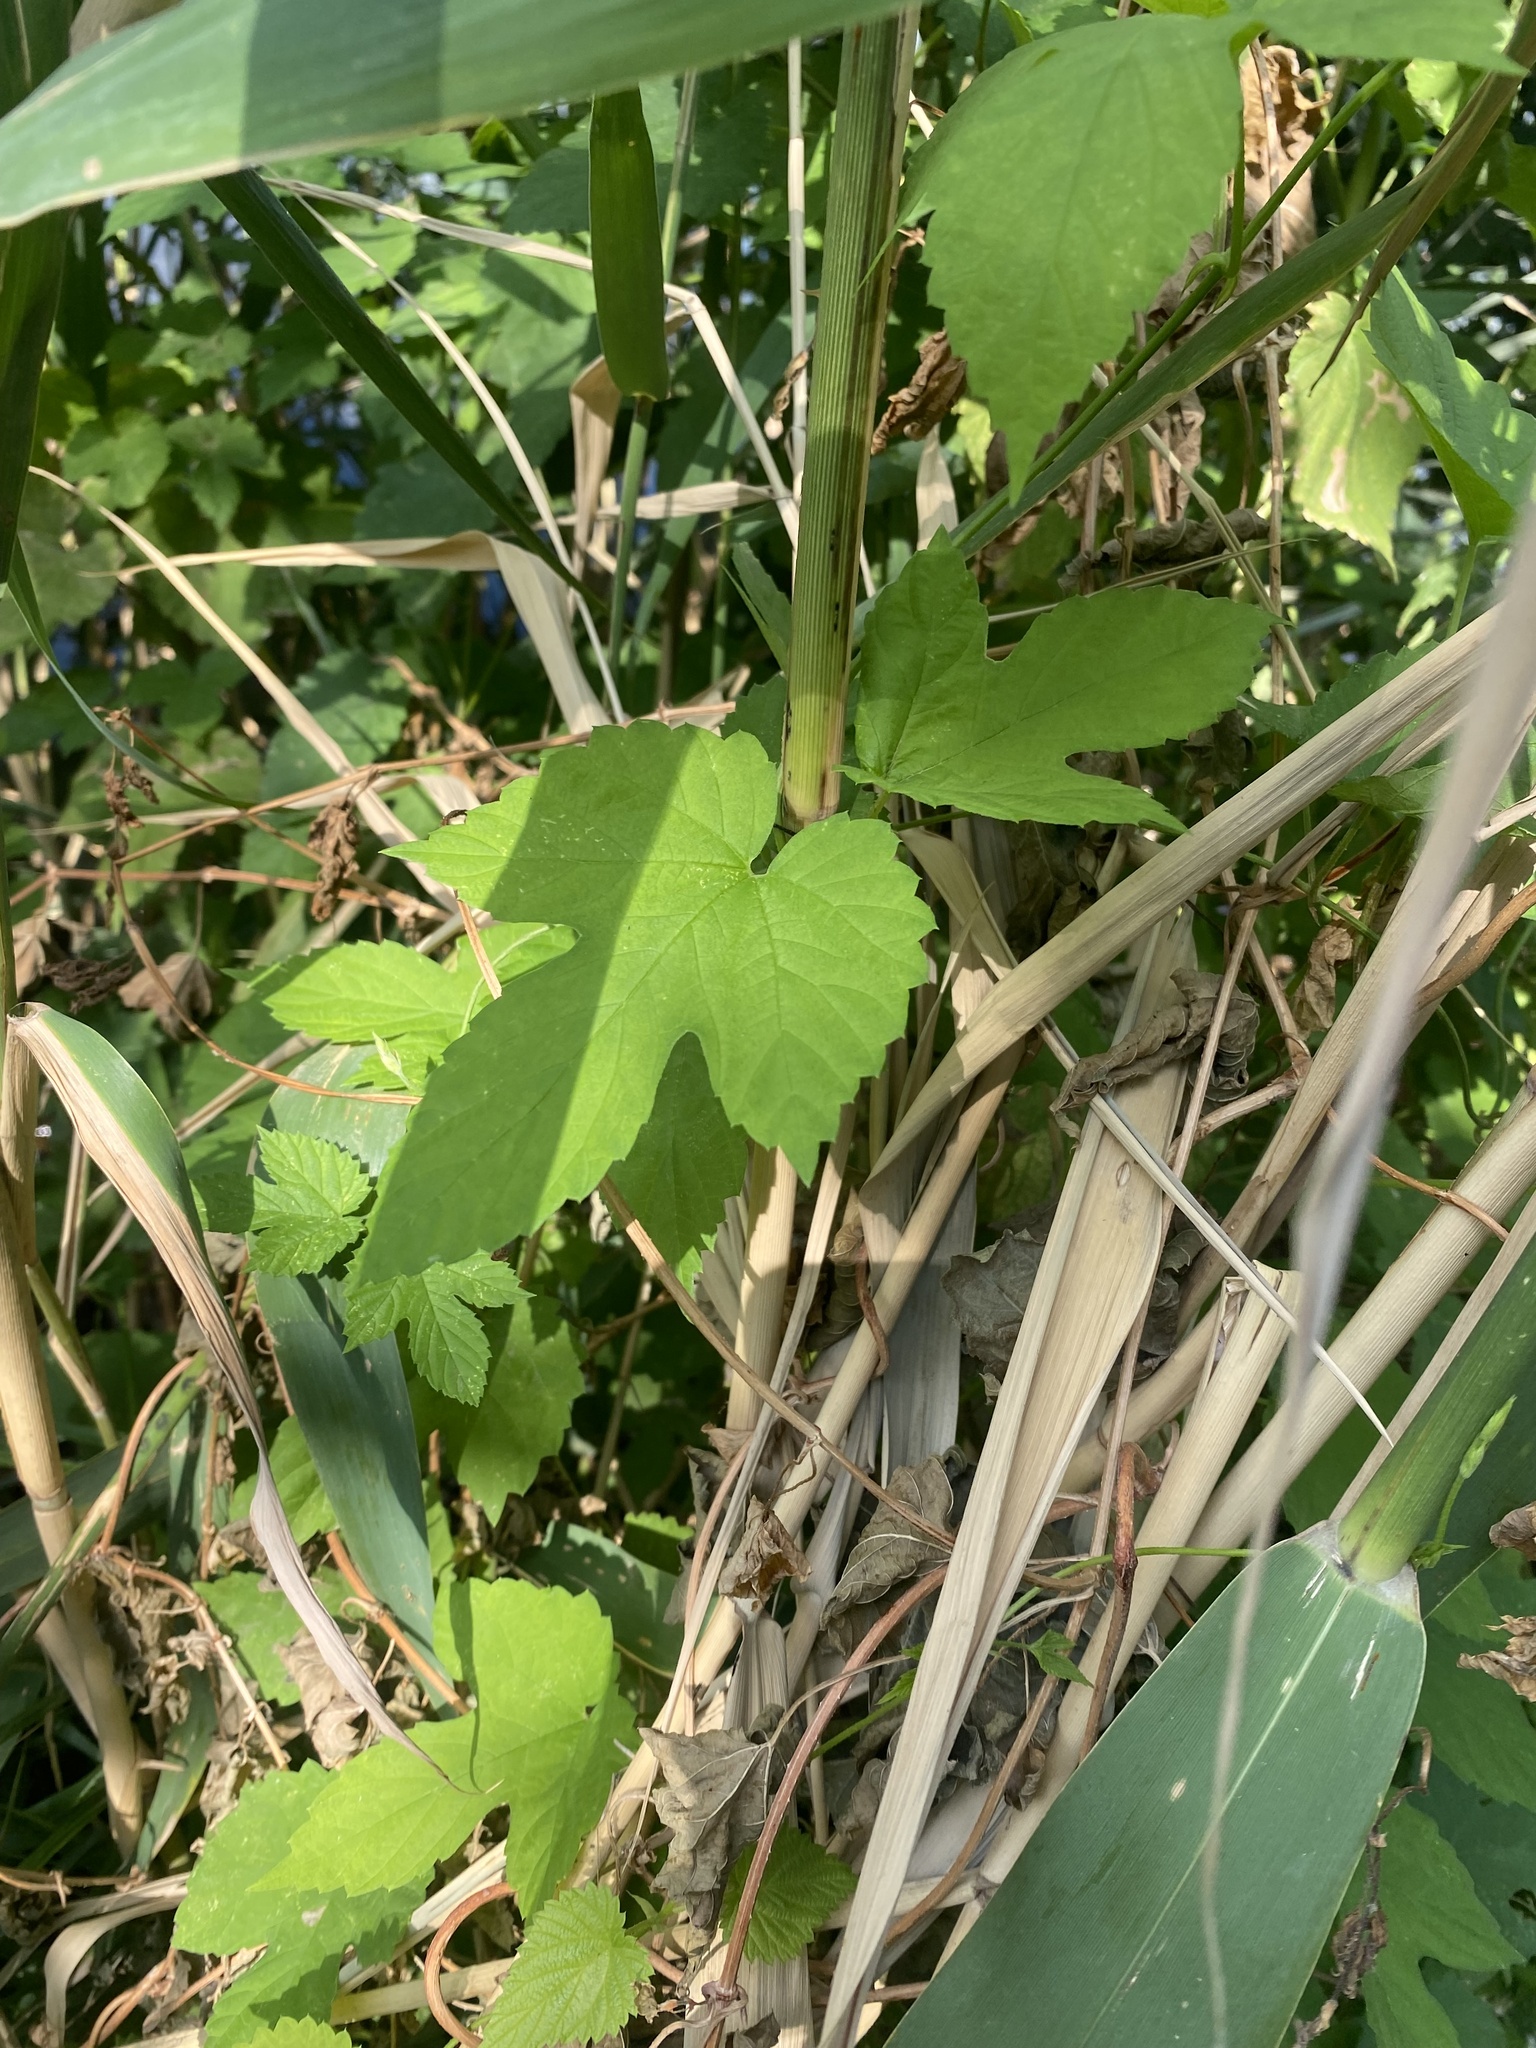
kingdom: Plantae
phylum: Tracheophyta
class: Magnoliopsida
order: Rosales
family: Cannabaceae
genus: Humulus
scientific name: Humulus lupulus
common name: Hop
